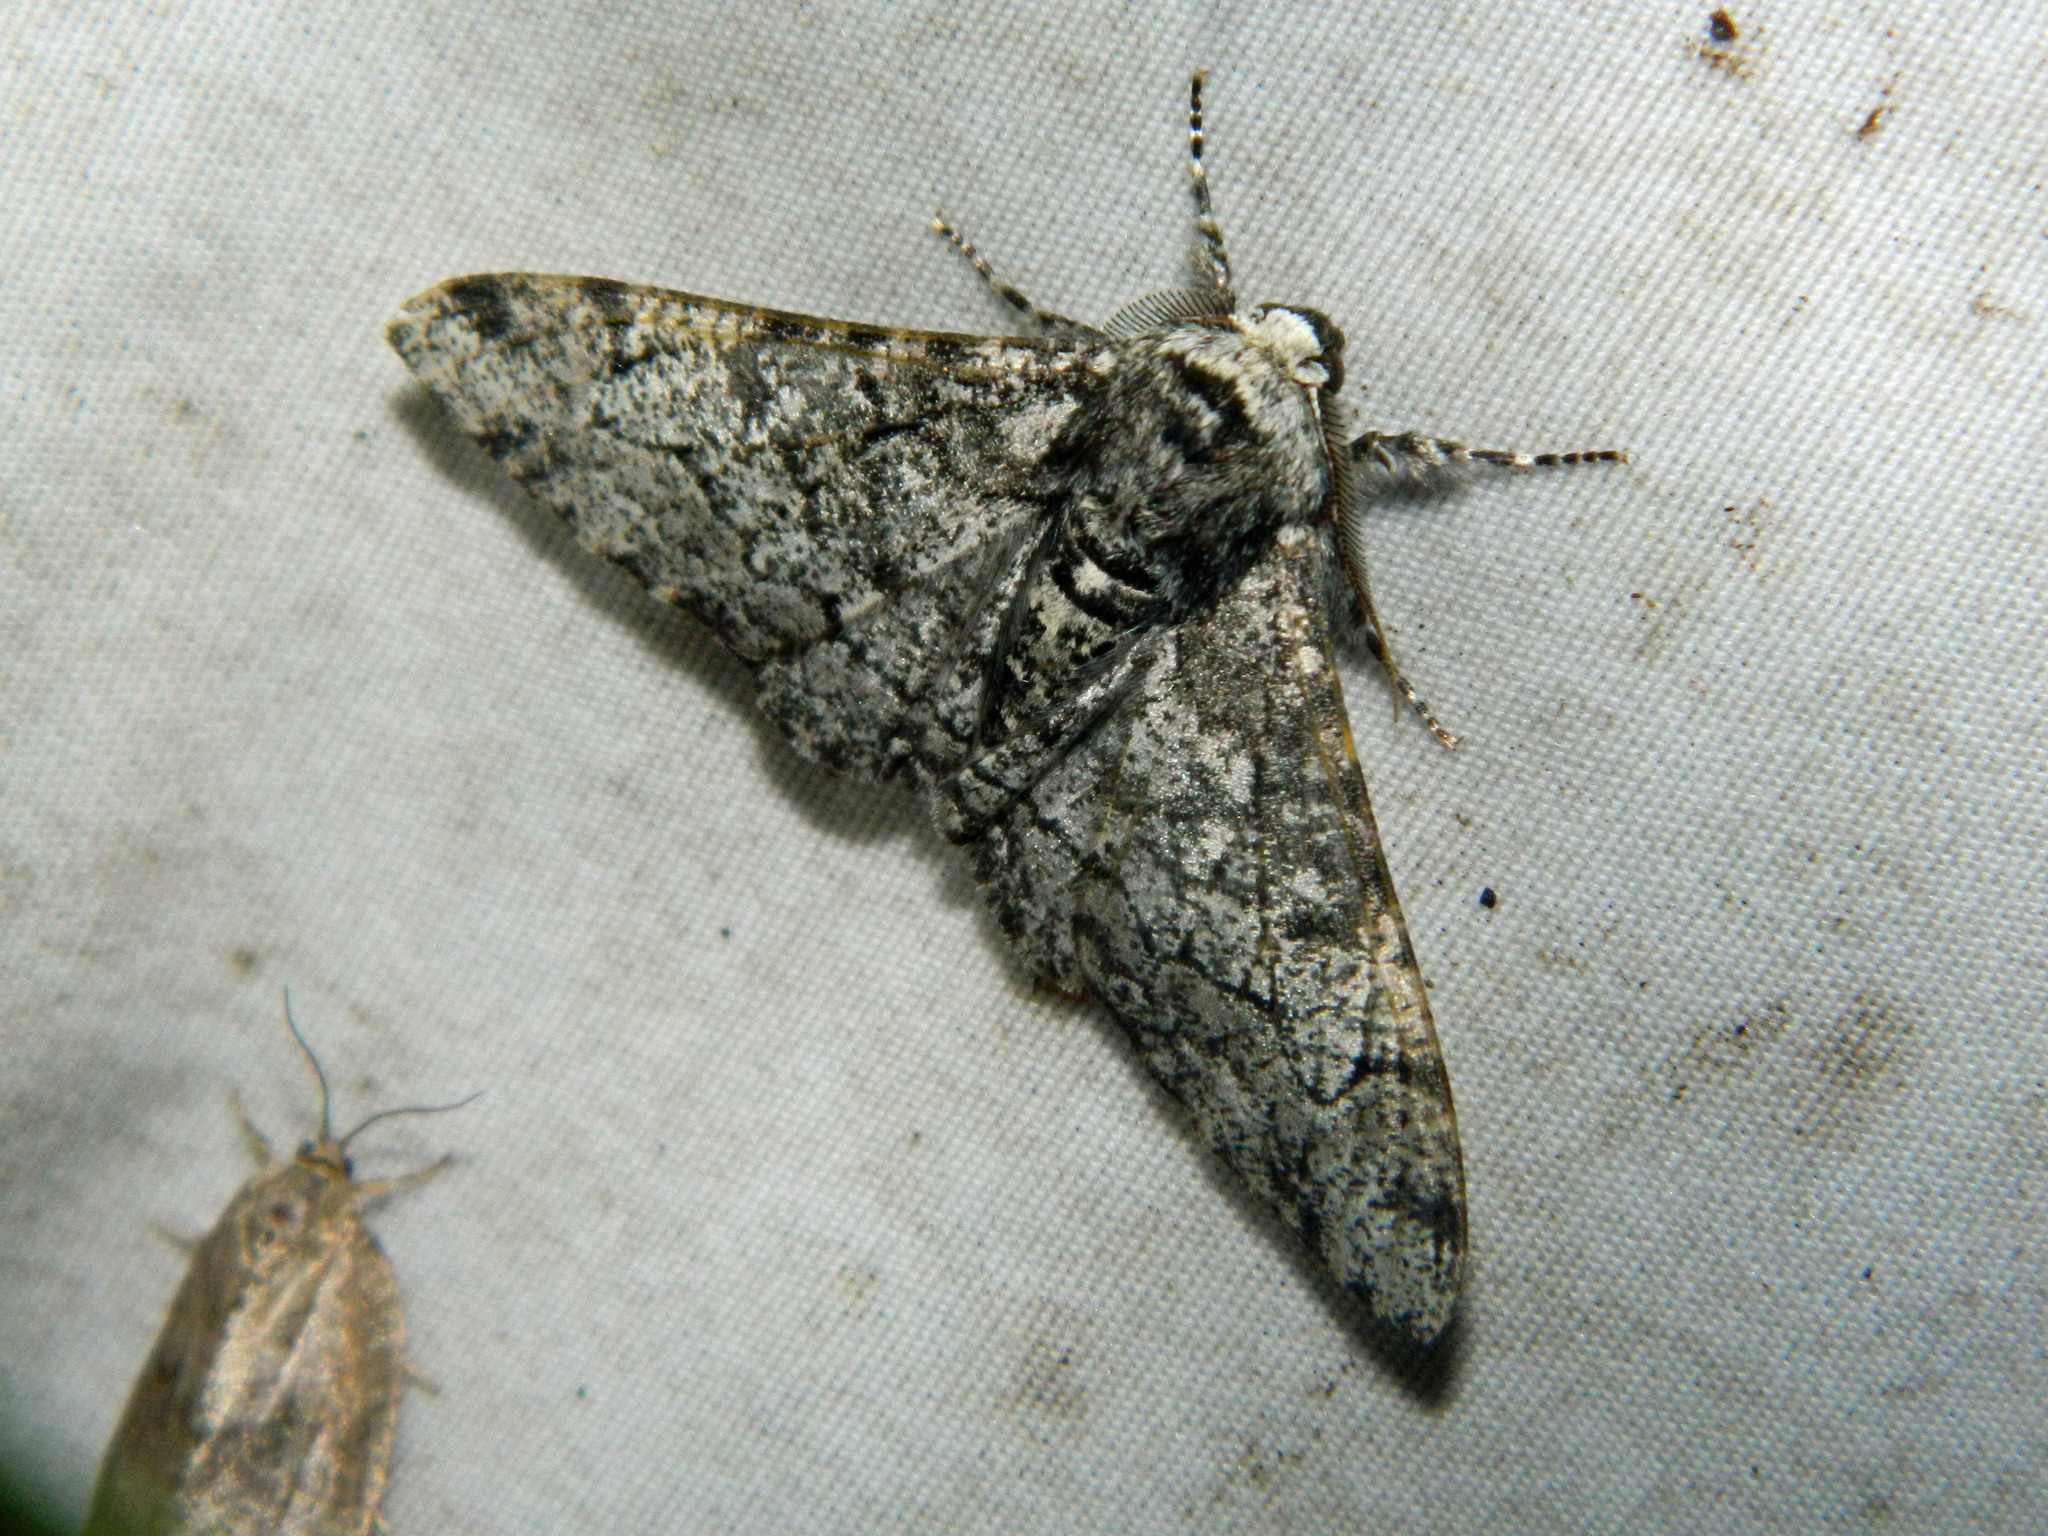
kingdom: Animalia
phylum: Arthropoda
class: Insecta
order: Lepidoptera
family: Geometridae
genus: Biston
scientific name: Biston betularia
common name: Peppered moth
